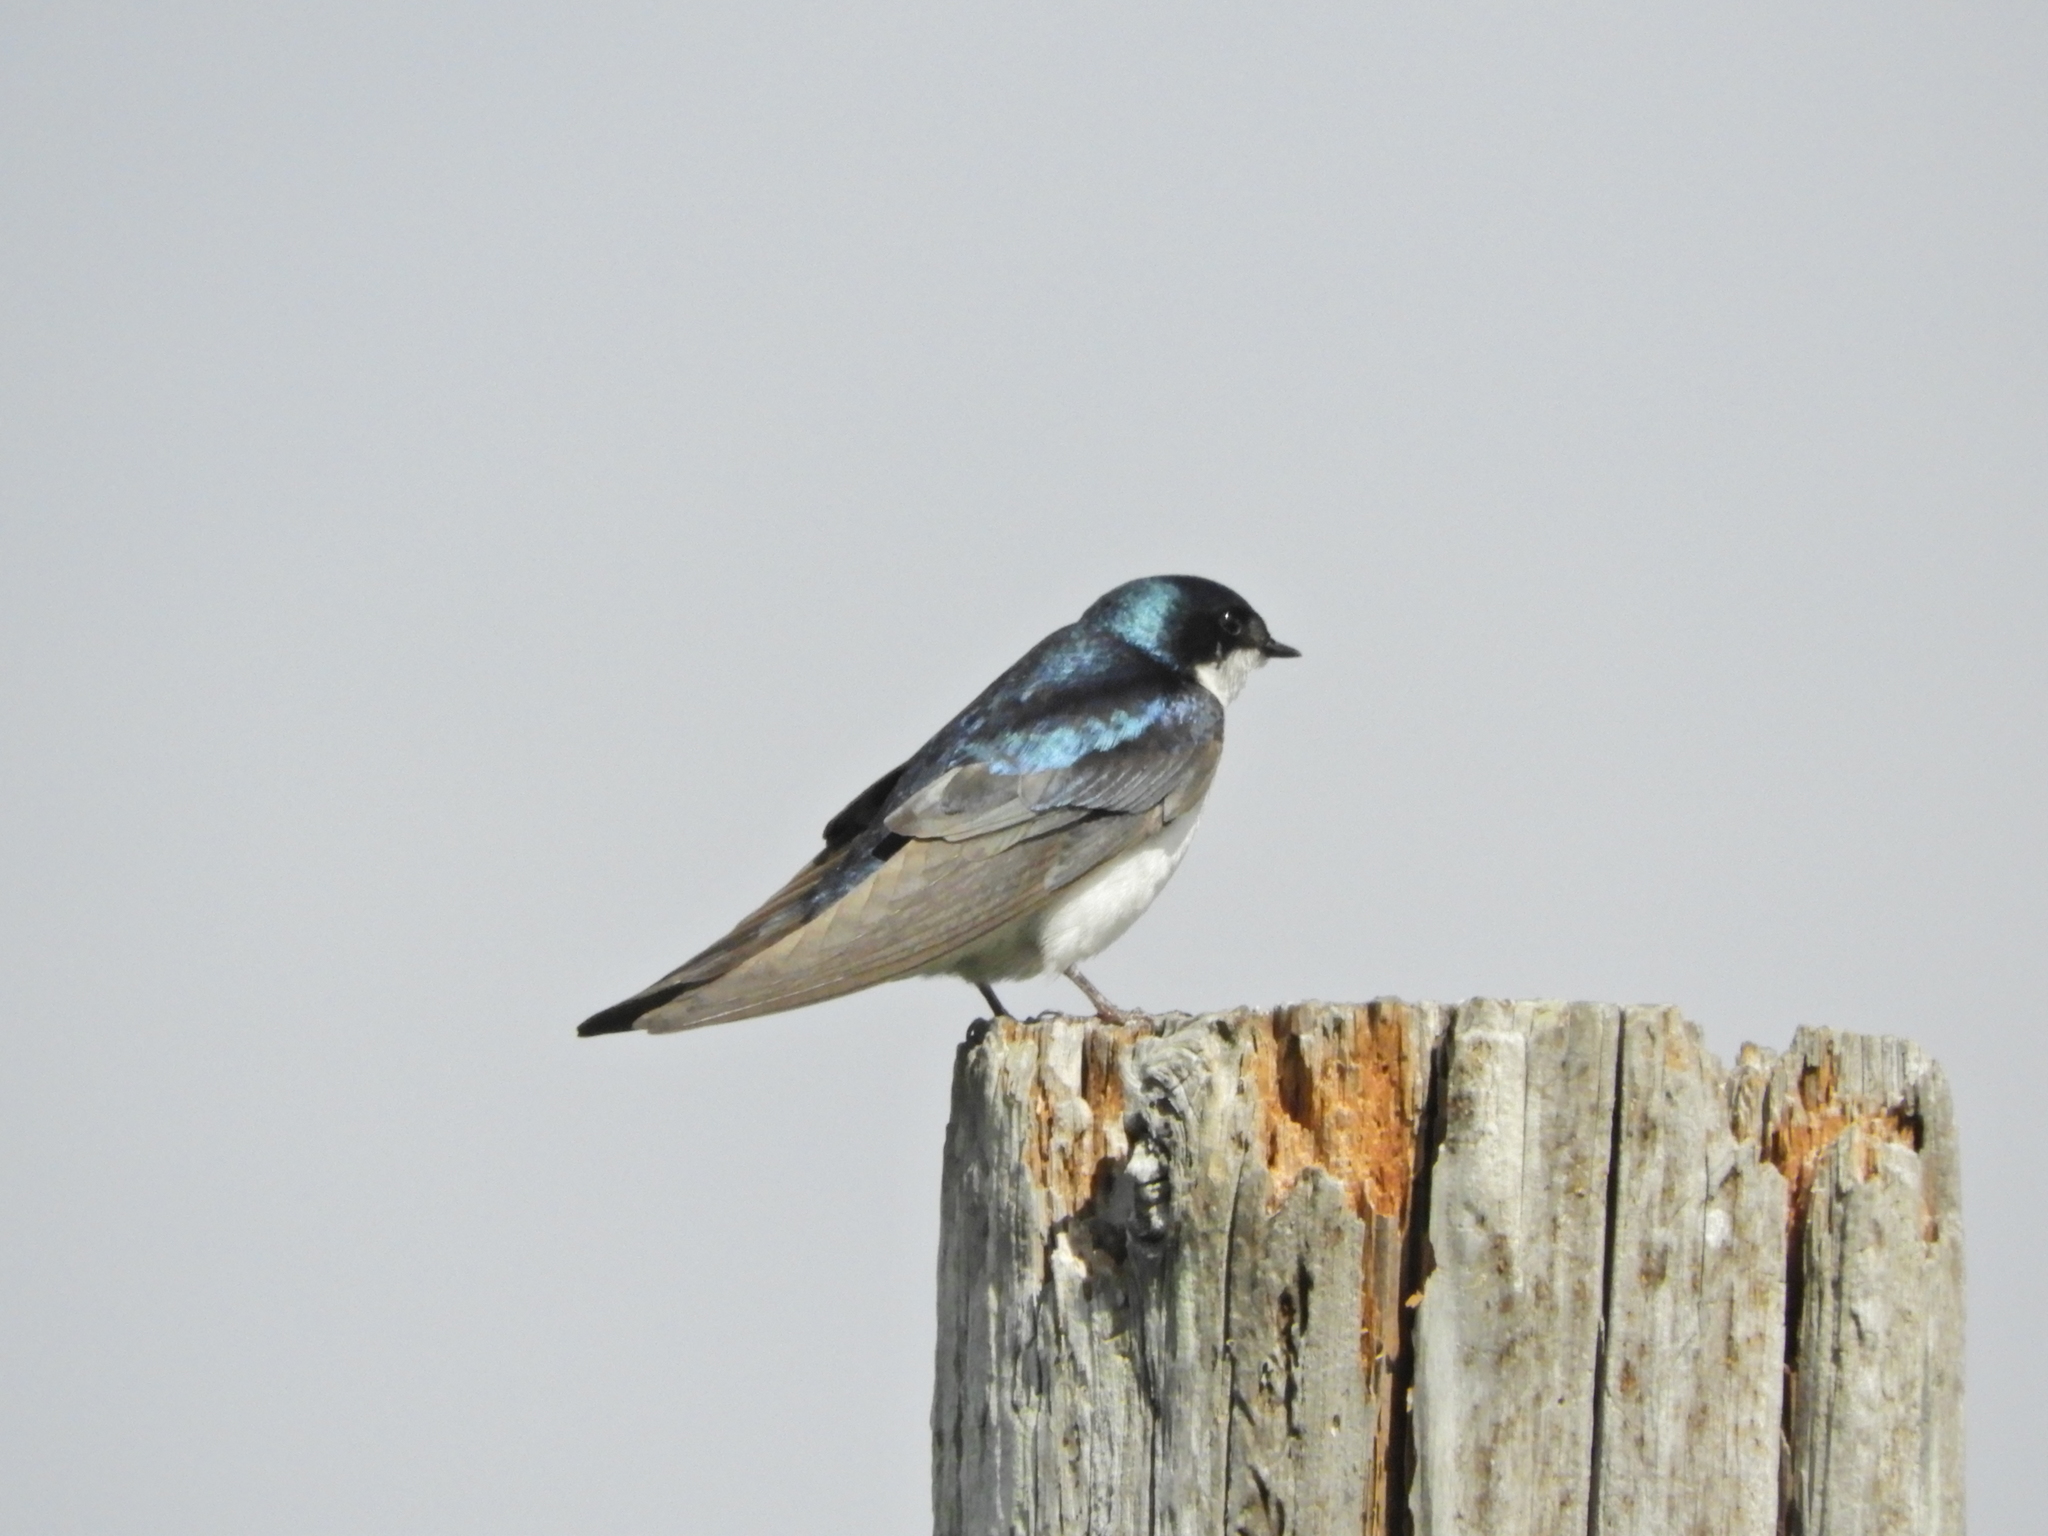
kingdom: Animalia
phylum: Chordata
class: Aves
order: Passeriformes
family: Hirundinidae
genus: Tachycineta
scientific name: Tachycineta bicolor
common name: Tree swallow
